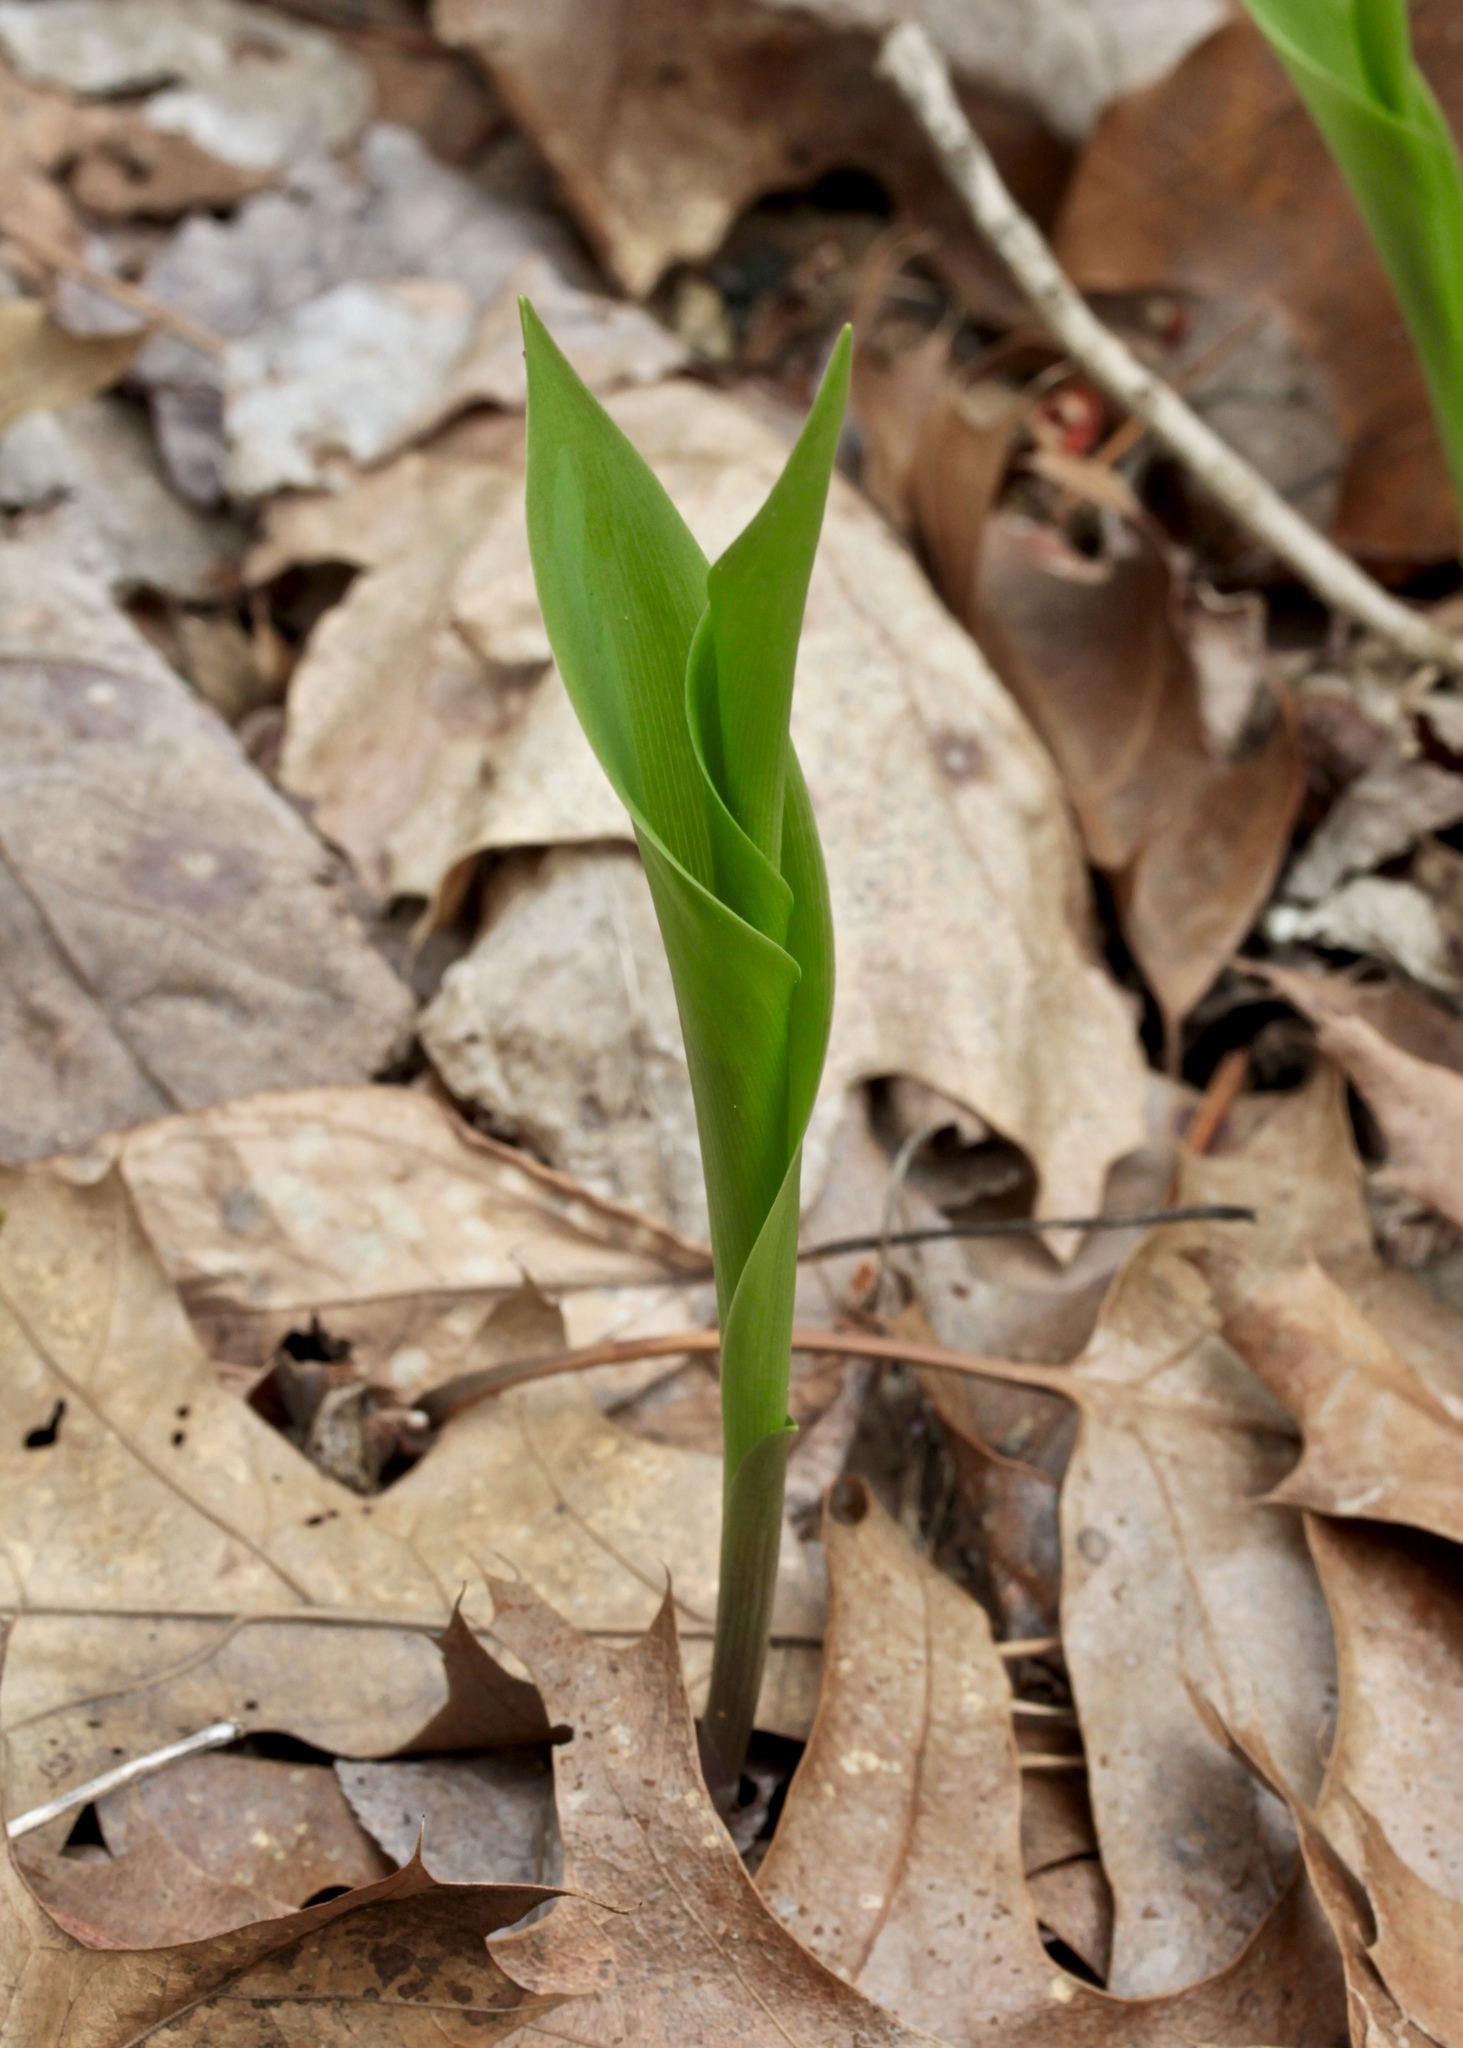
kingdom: Plantae
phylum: Tracheophyta
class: Liliopsida
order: Asparagales
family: Asparagaceae
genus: Convallaria
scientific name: Convallaria majalis
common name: Lily-of-the-valley
